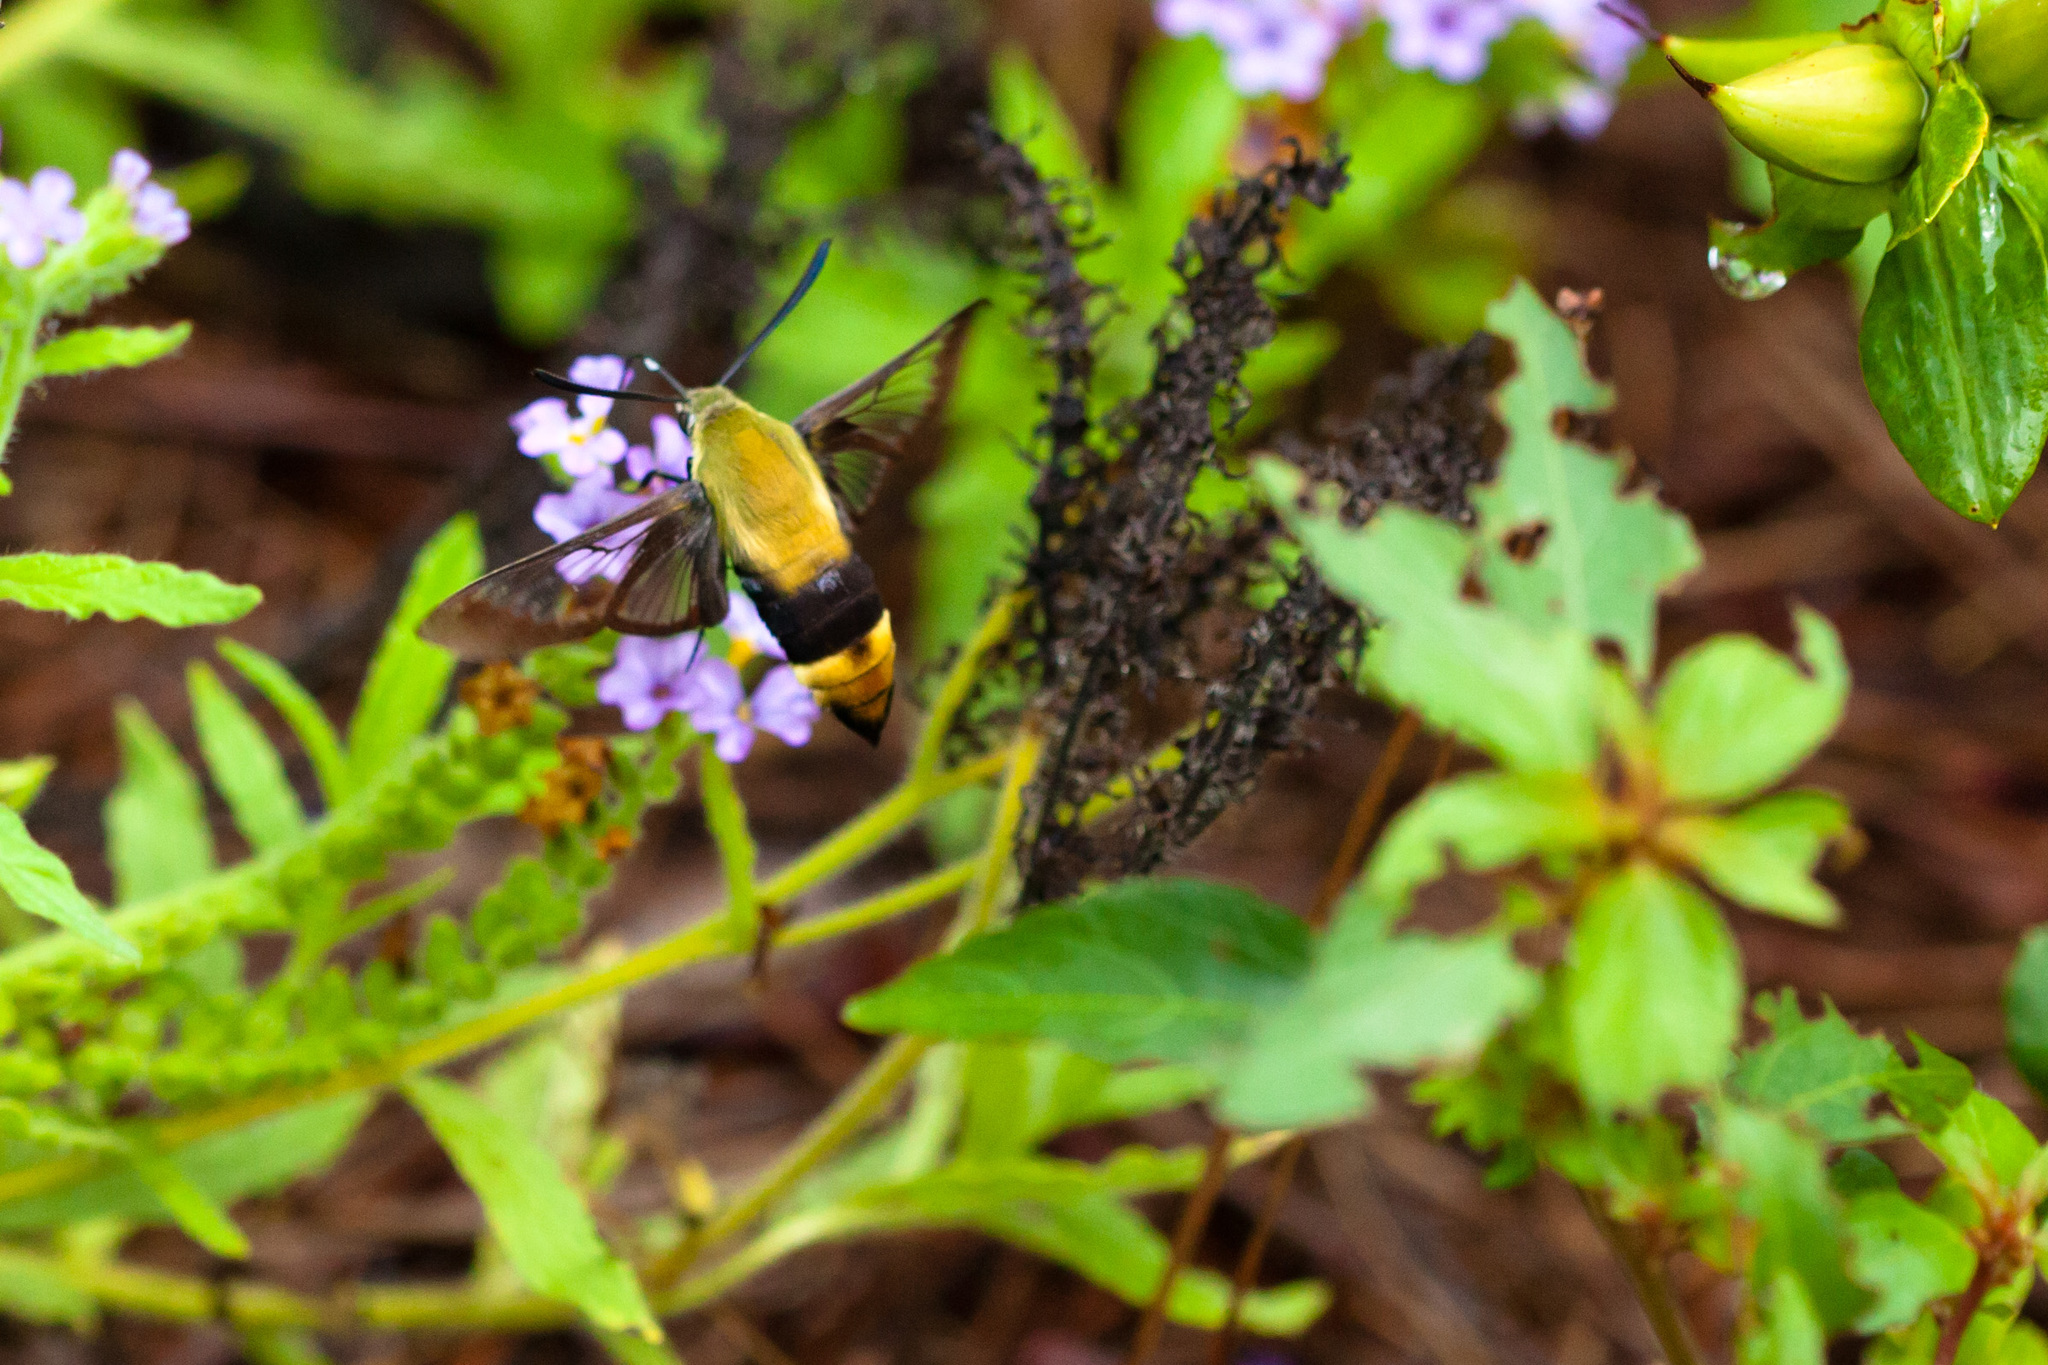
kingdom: Animalia
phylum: Arthropoda
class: Insecta
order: Lepidoptera
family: Sphingidae
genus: Hemaris
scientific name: Hemaris diffinis
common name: Bumblebee moth
